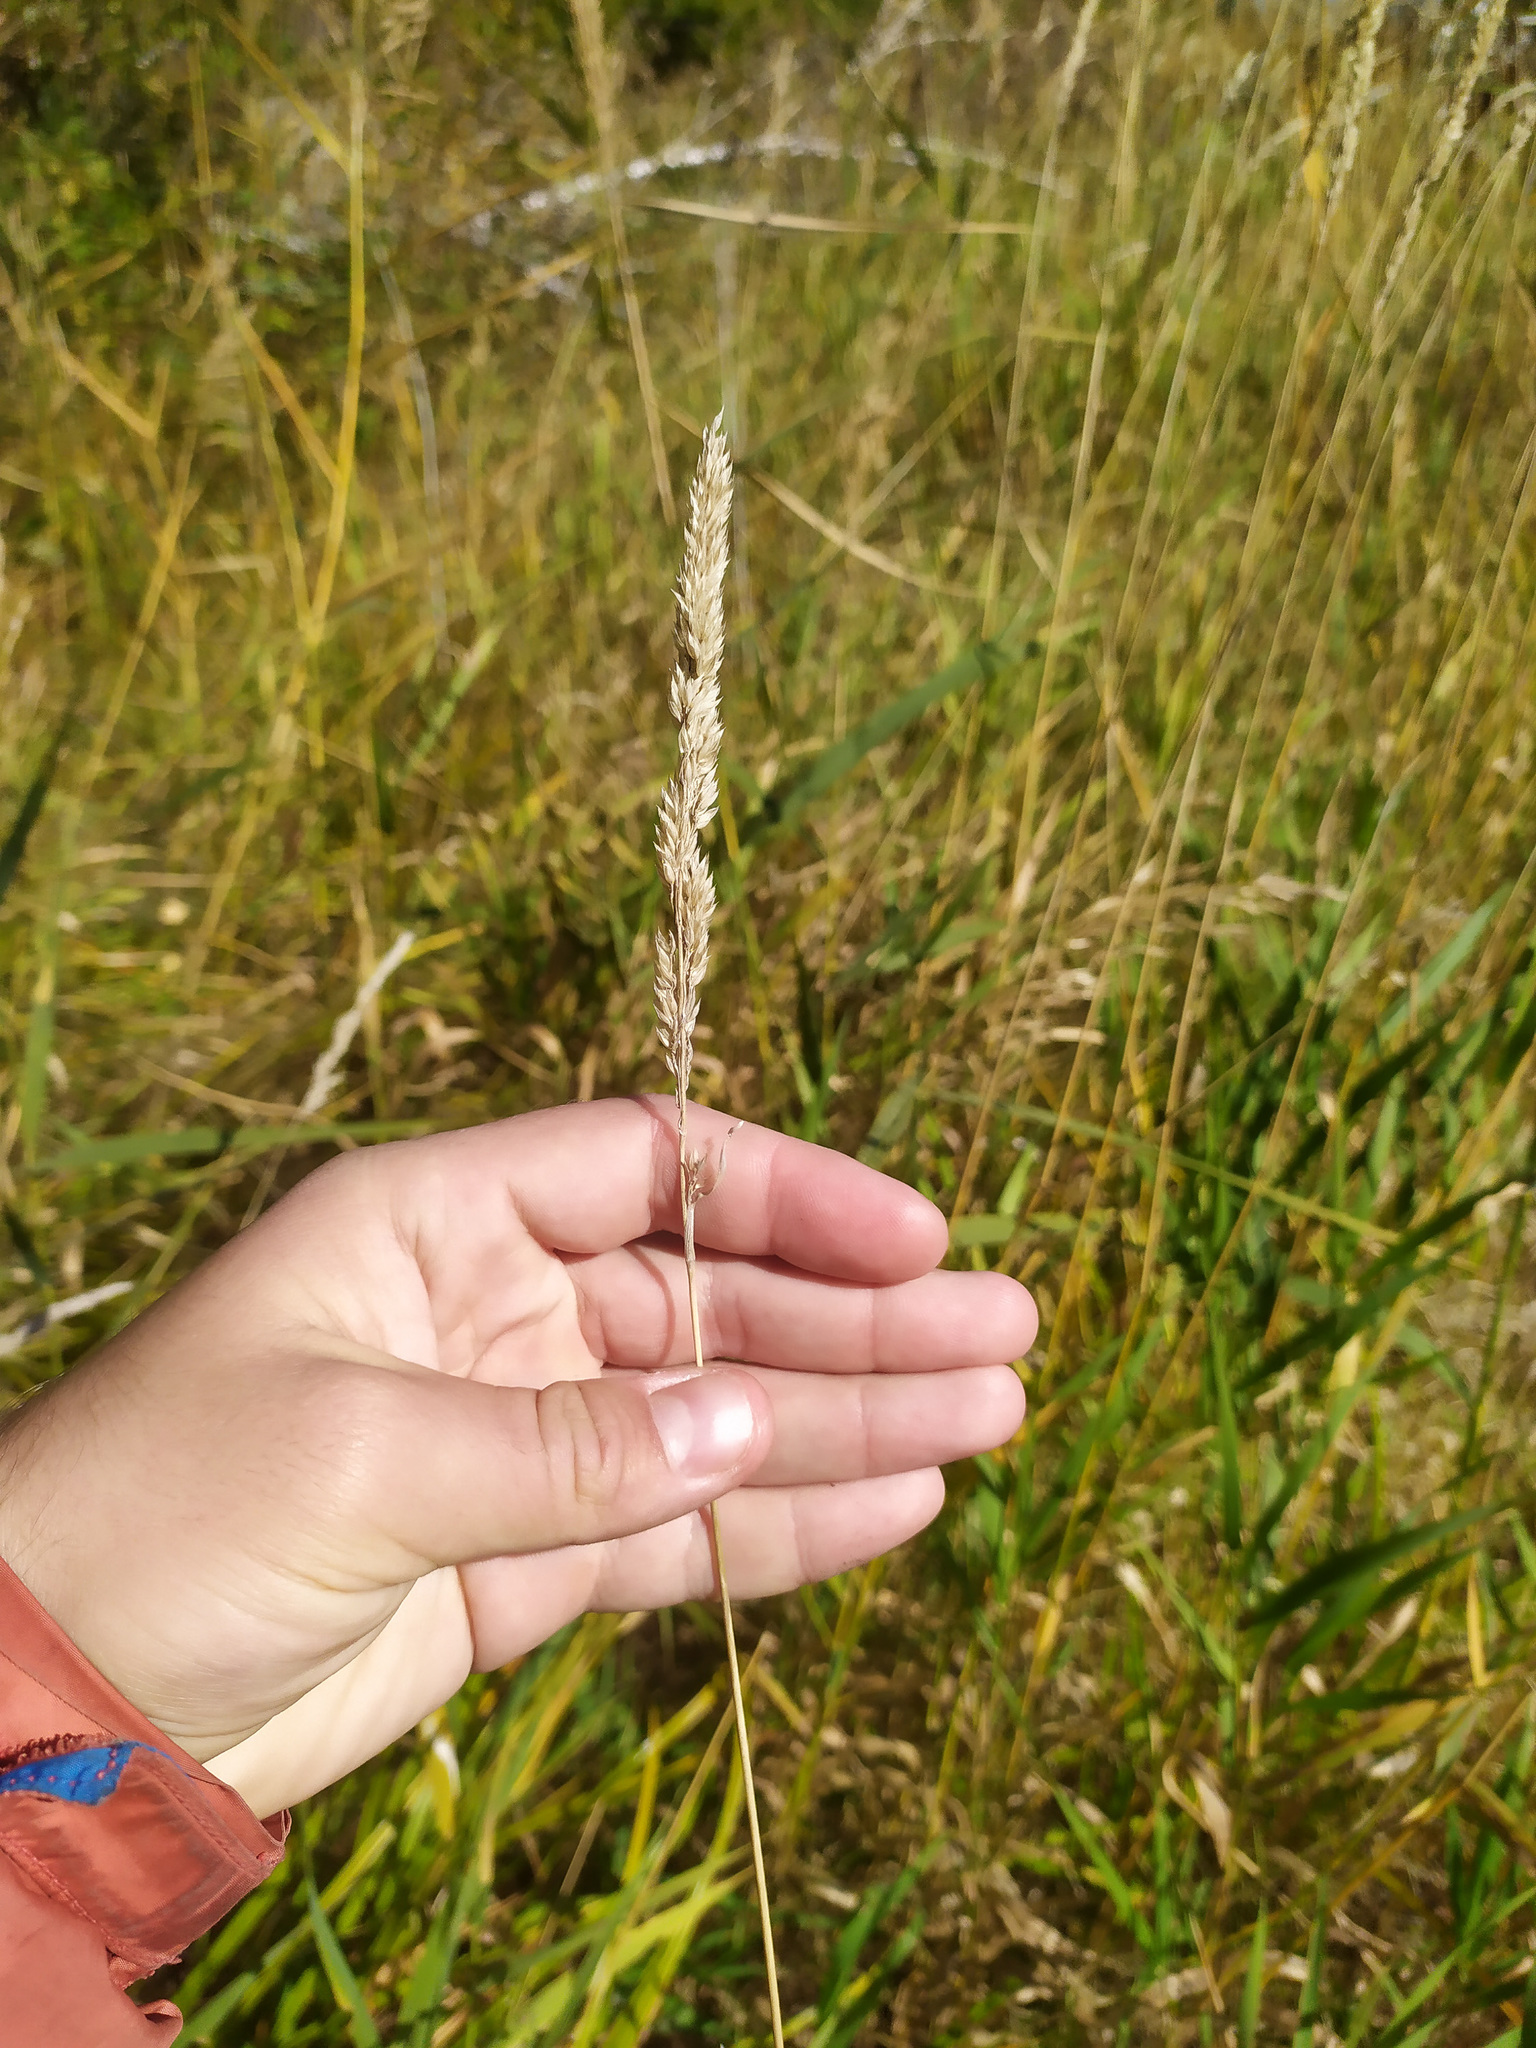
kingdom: Plantae
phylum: Tracheophyta
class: Liliopsida
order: Poales
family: Poaceae
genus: Phalaris
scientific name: Phalaris arundinacea
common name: Reed canary-grass
